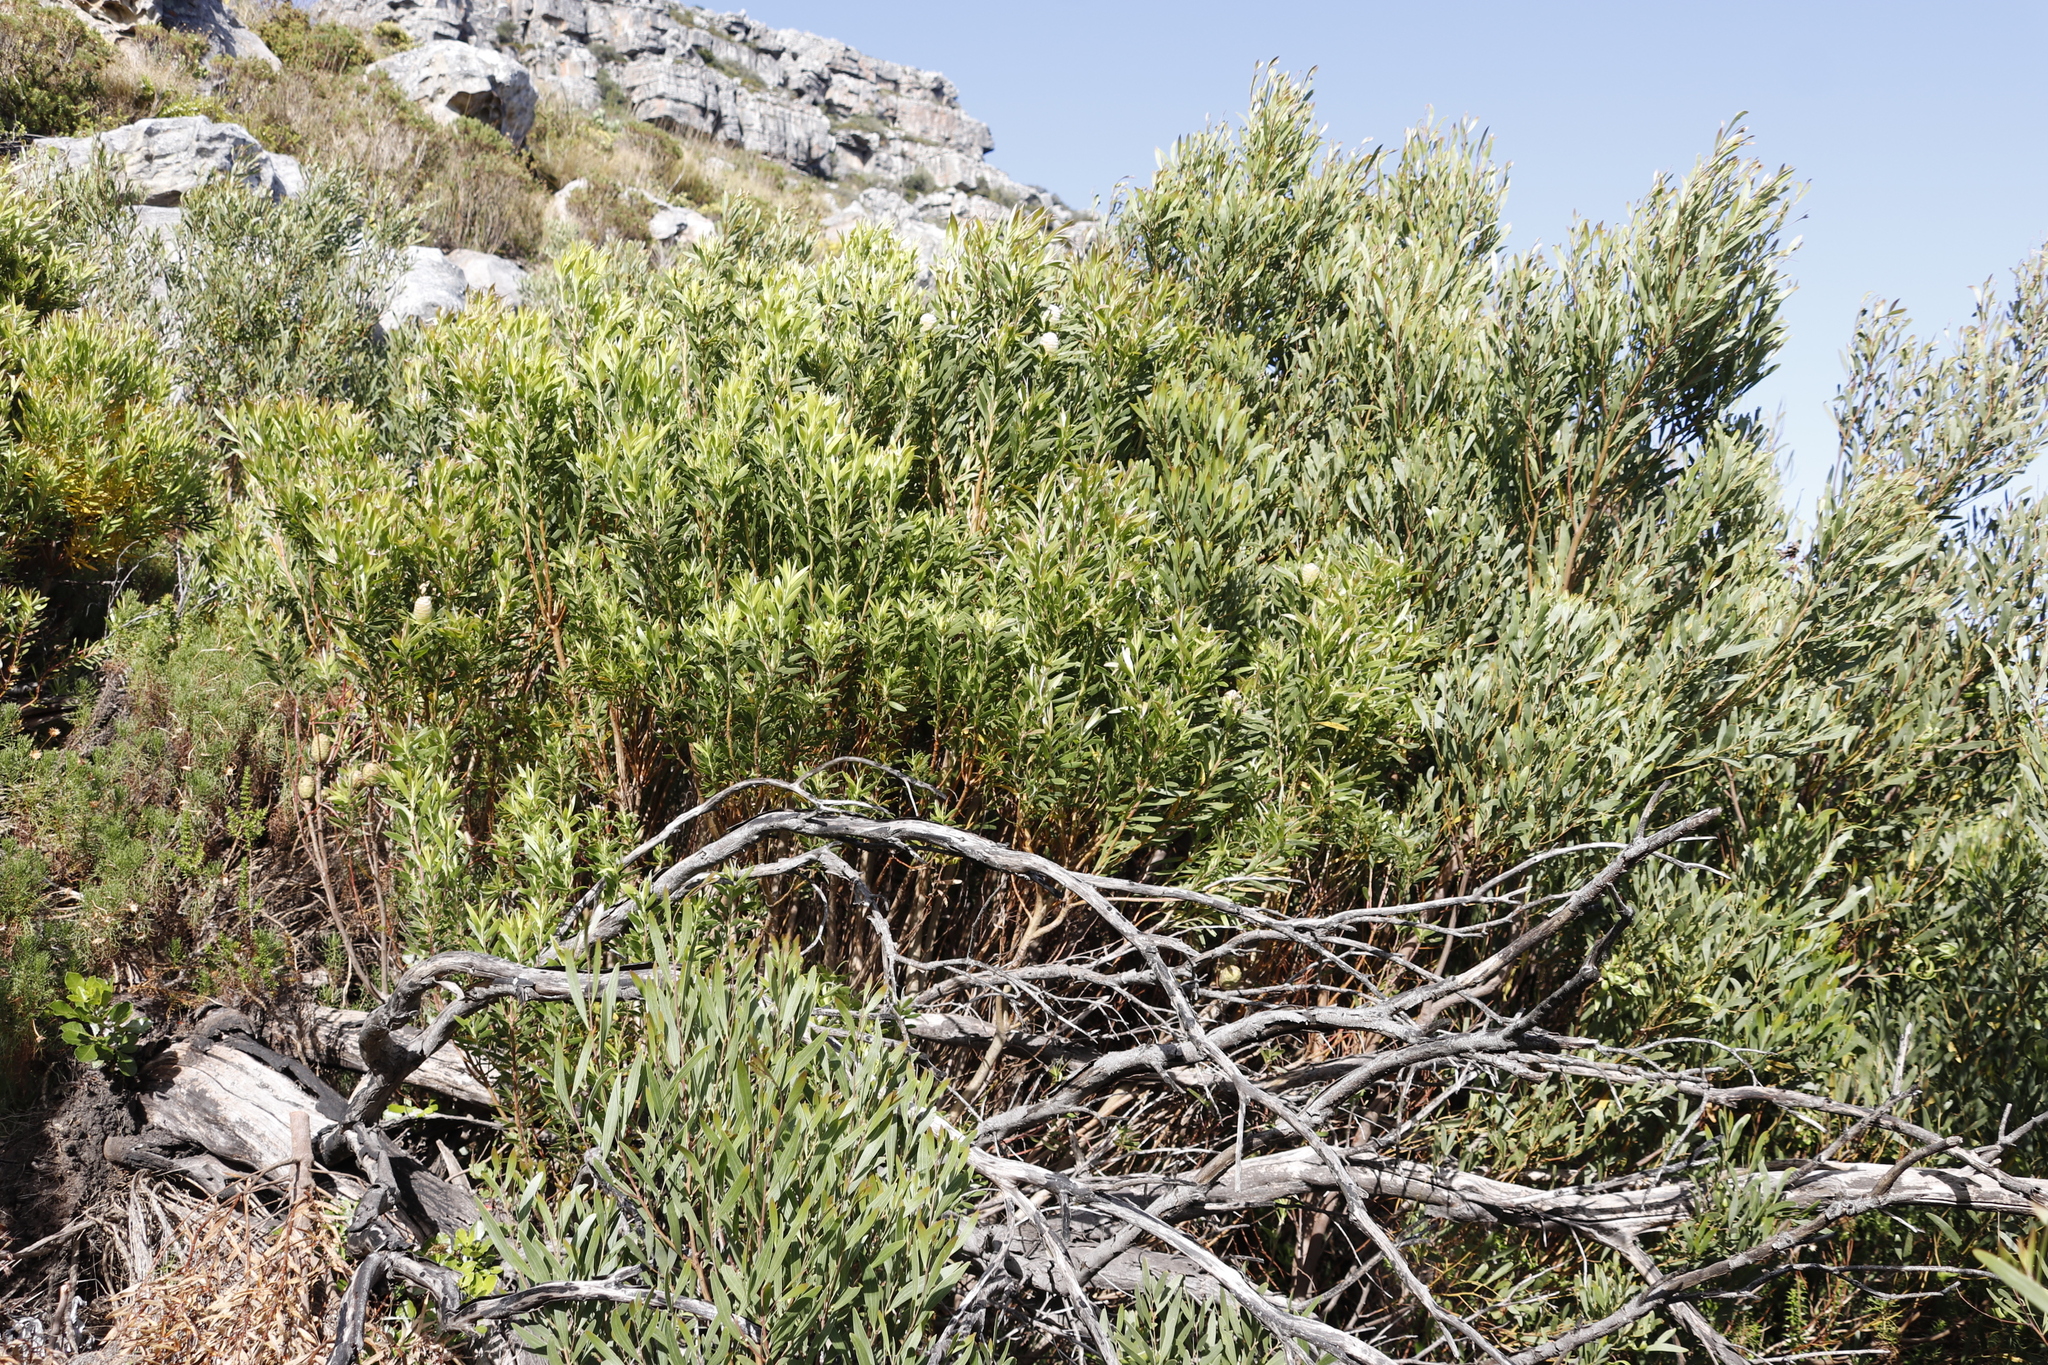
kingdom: Plantae
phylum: Tracheophyta
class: Magnoliopsida
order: Proteales
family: Proteaceae
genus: Leucadendron
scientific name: Leucadendron xanthoconus
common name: Sickle-leaf conebush
